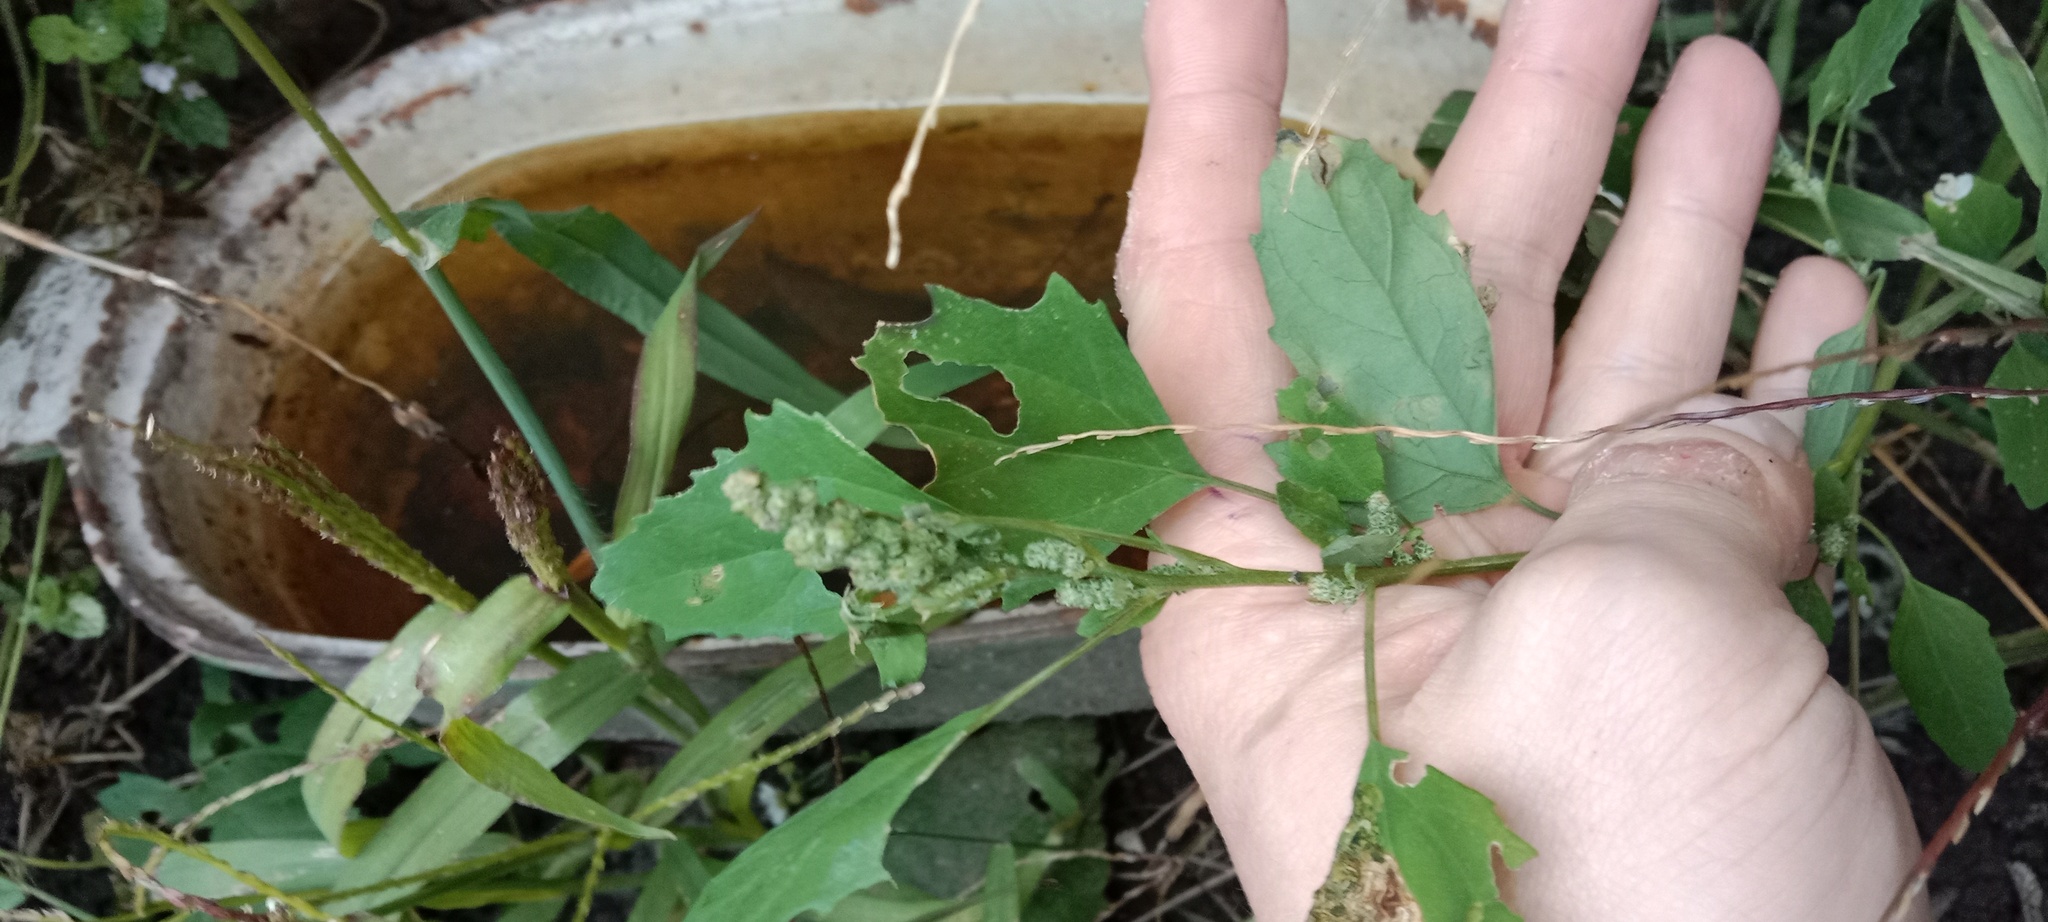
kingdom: Plantae
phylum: Tracheophyta
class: Magnoliopsida
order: Caryophyllales
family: Amaranthaceae
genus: Chenopodium
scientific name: Chenopodium album
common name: Fat-hen
